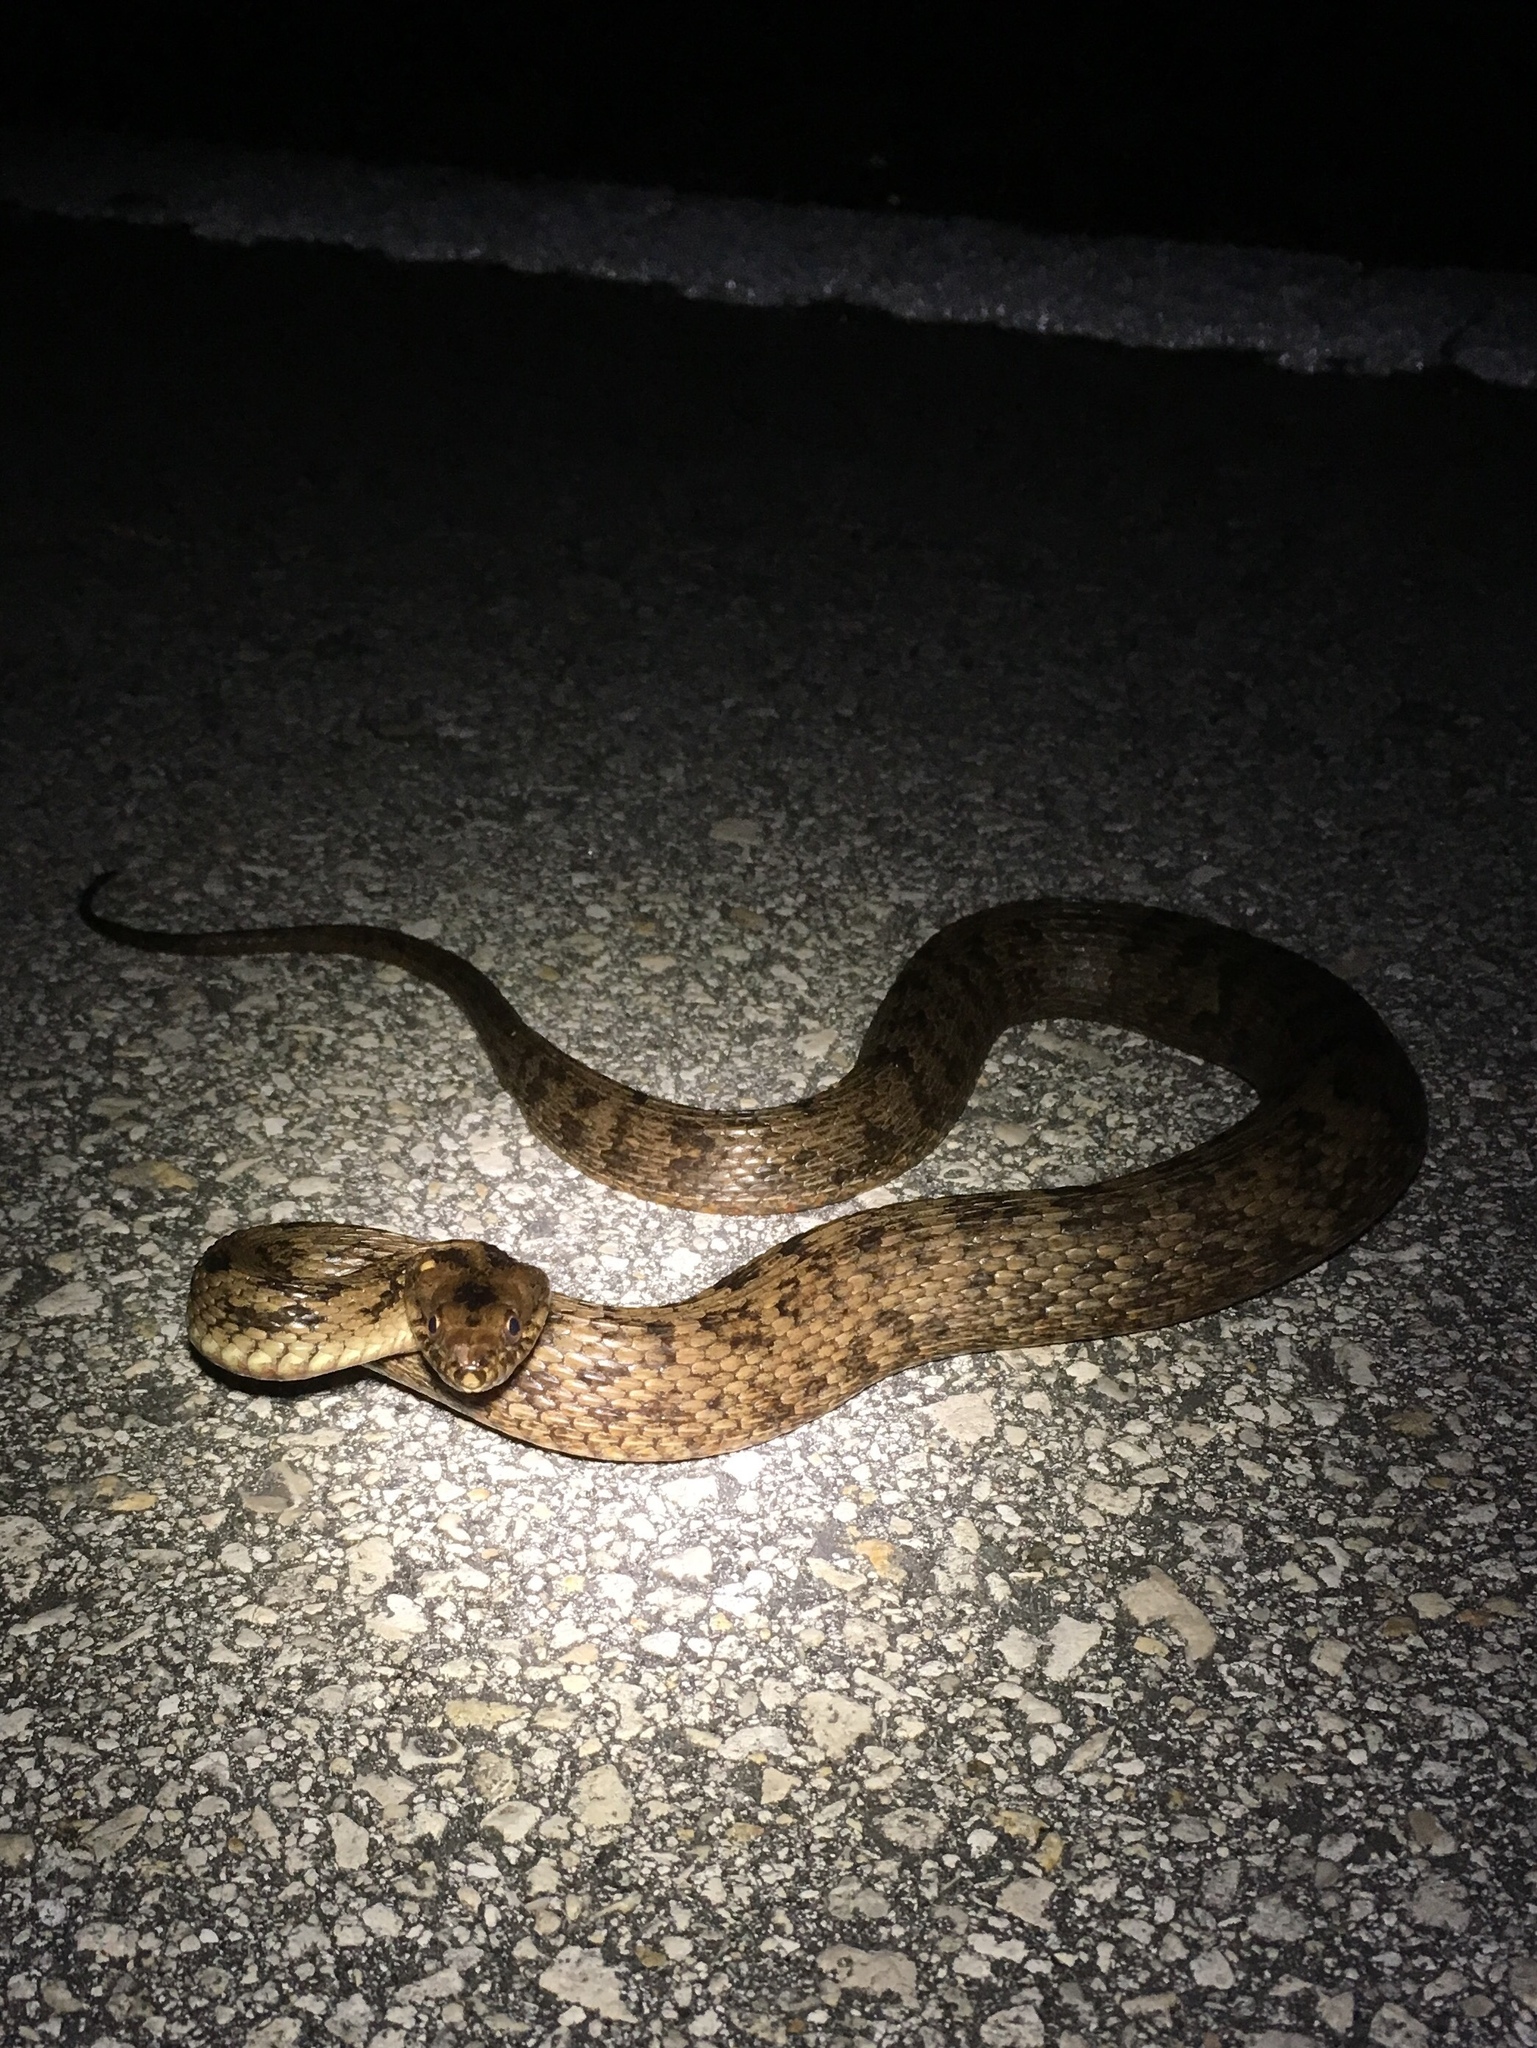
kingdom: Animalia
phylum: Chordata
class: Squamata
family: Colubridae
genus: Nerodia
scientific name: Nerodia clarkii
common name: Atlantic saltmarsh snake
